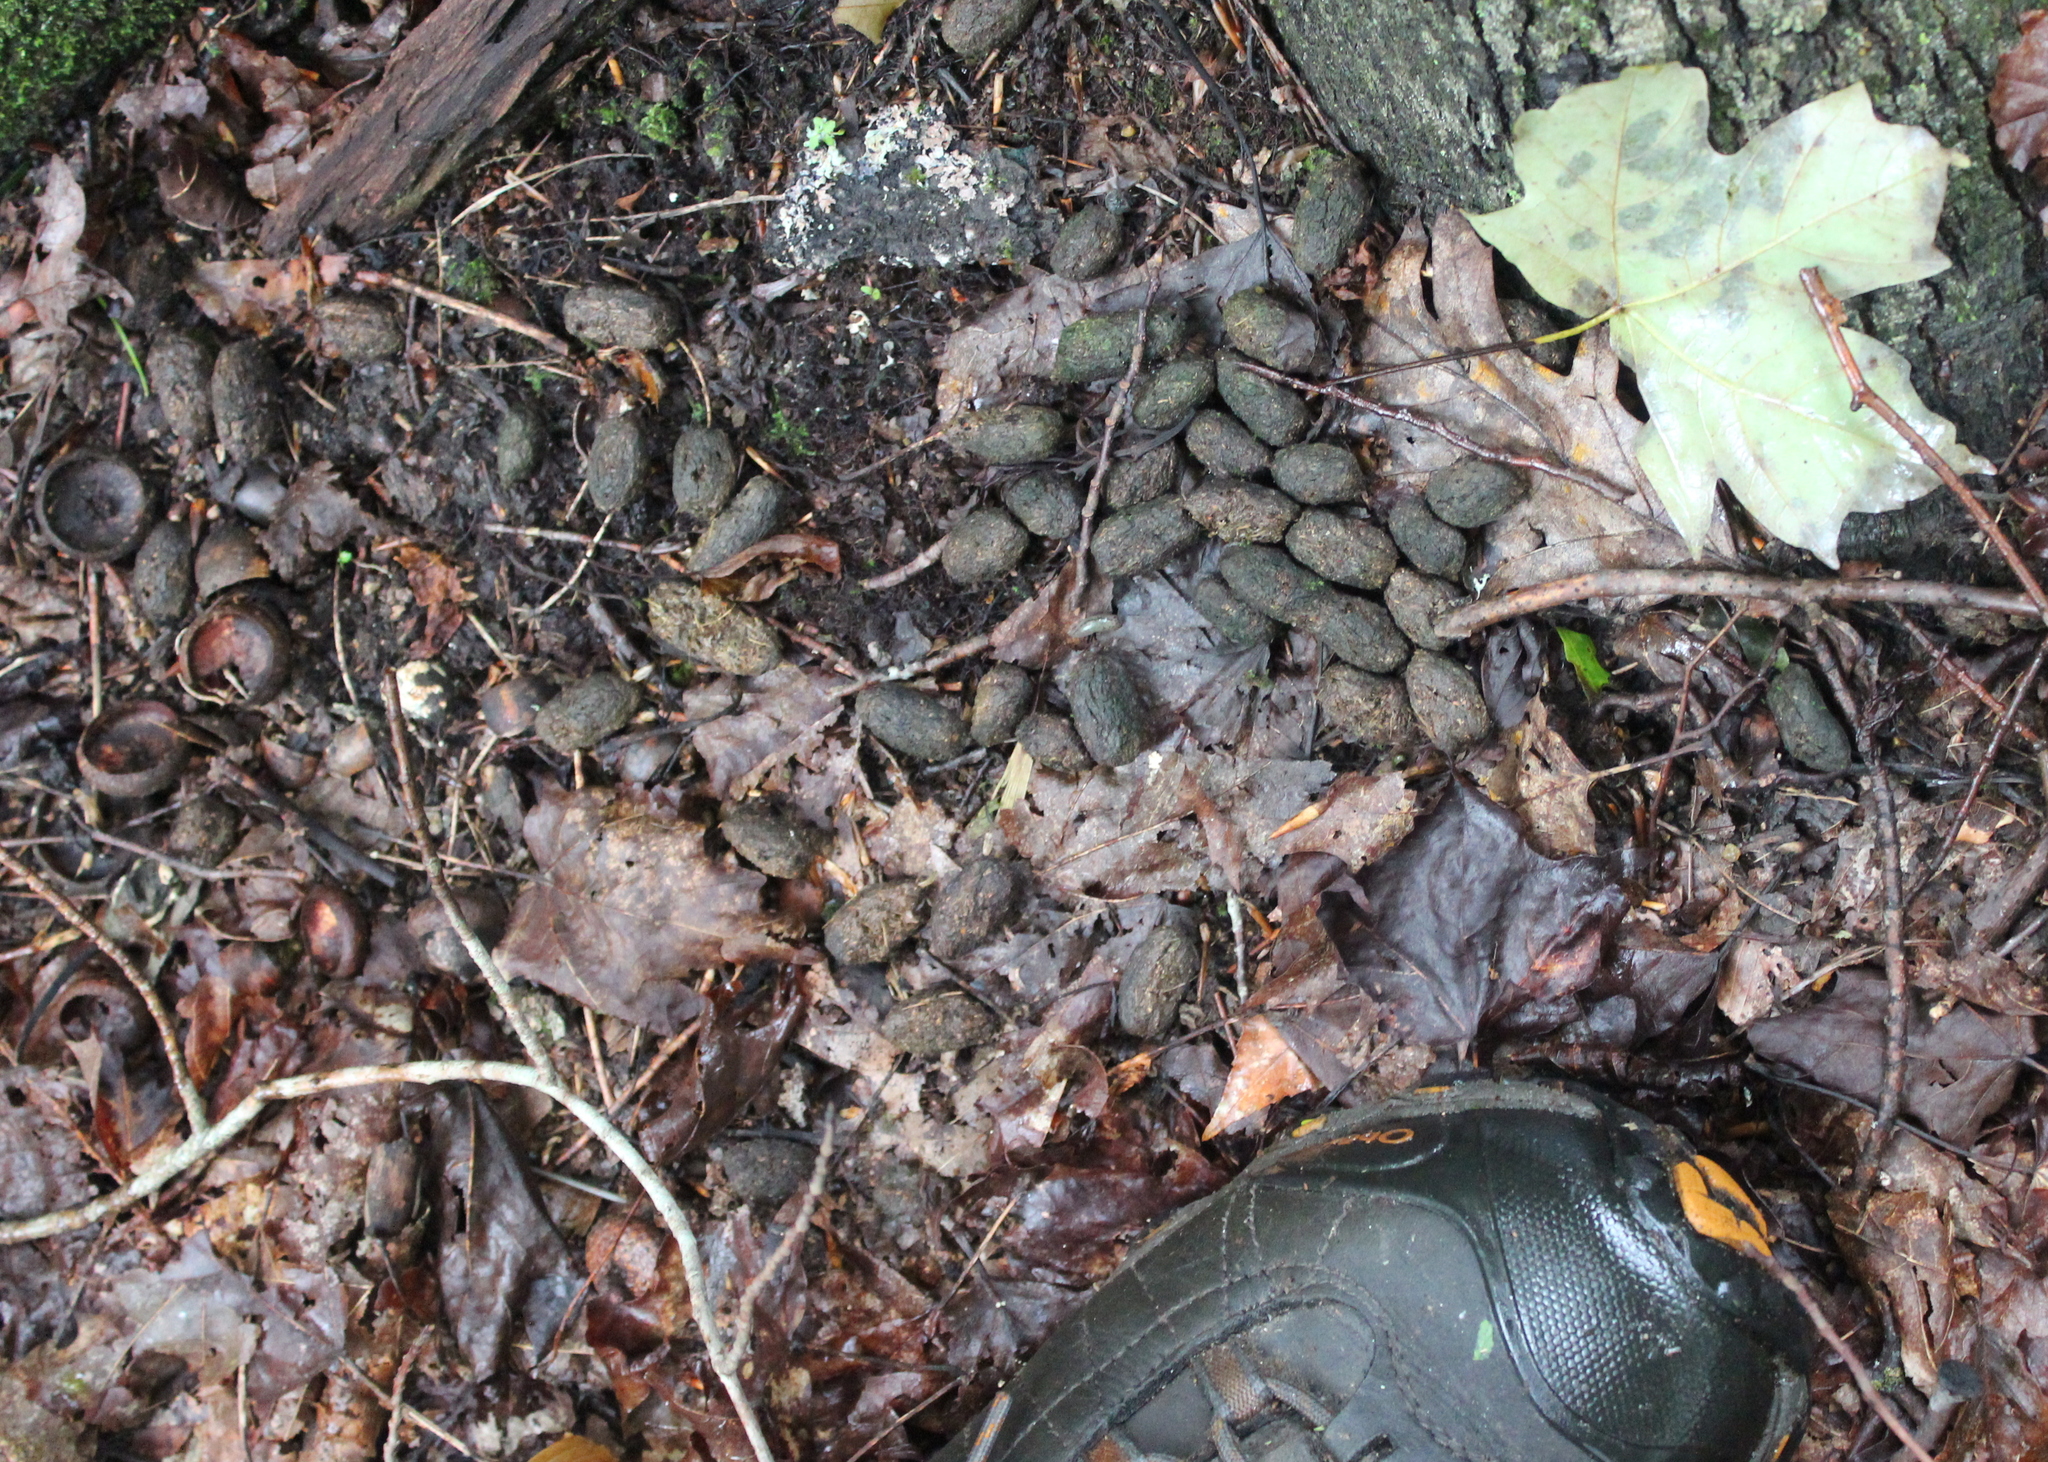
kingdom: Animalia
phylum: Chordata
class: Mammalia
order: Rodentia
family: Erethizontidae
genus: Erethizon
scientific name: Erethizon dorsatus
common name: North american porcupine
